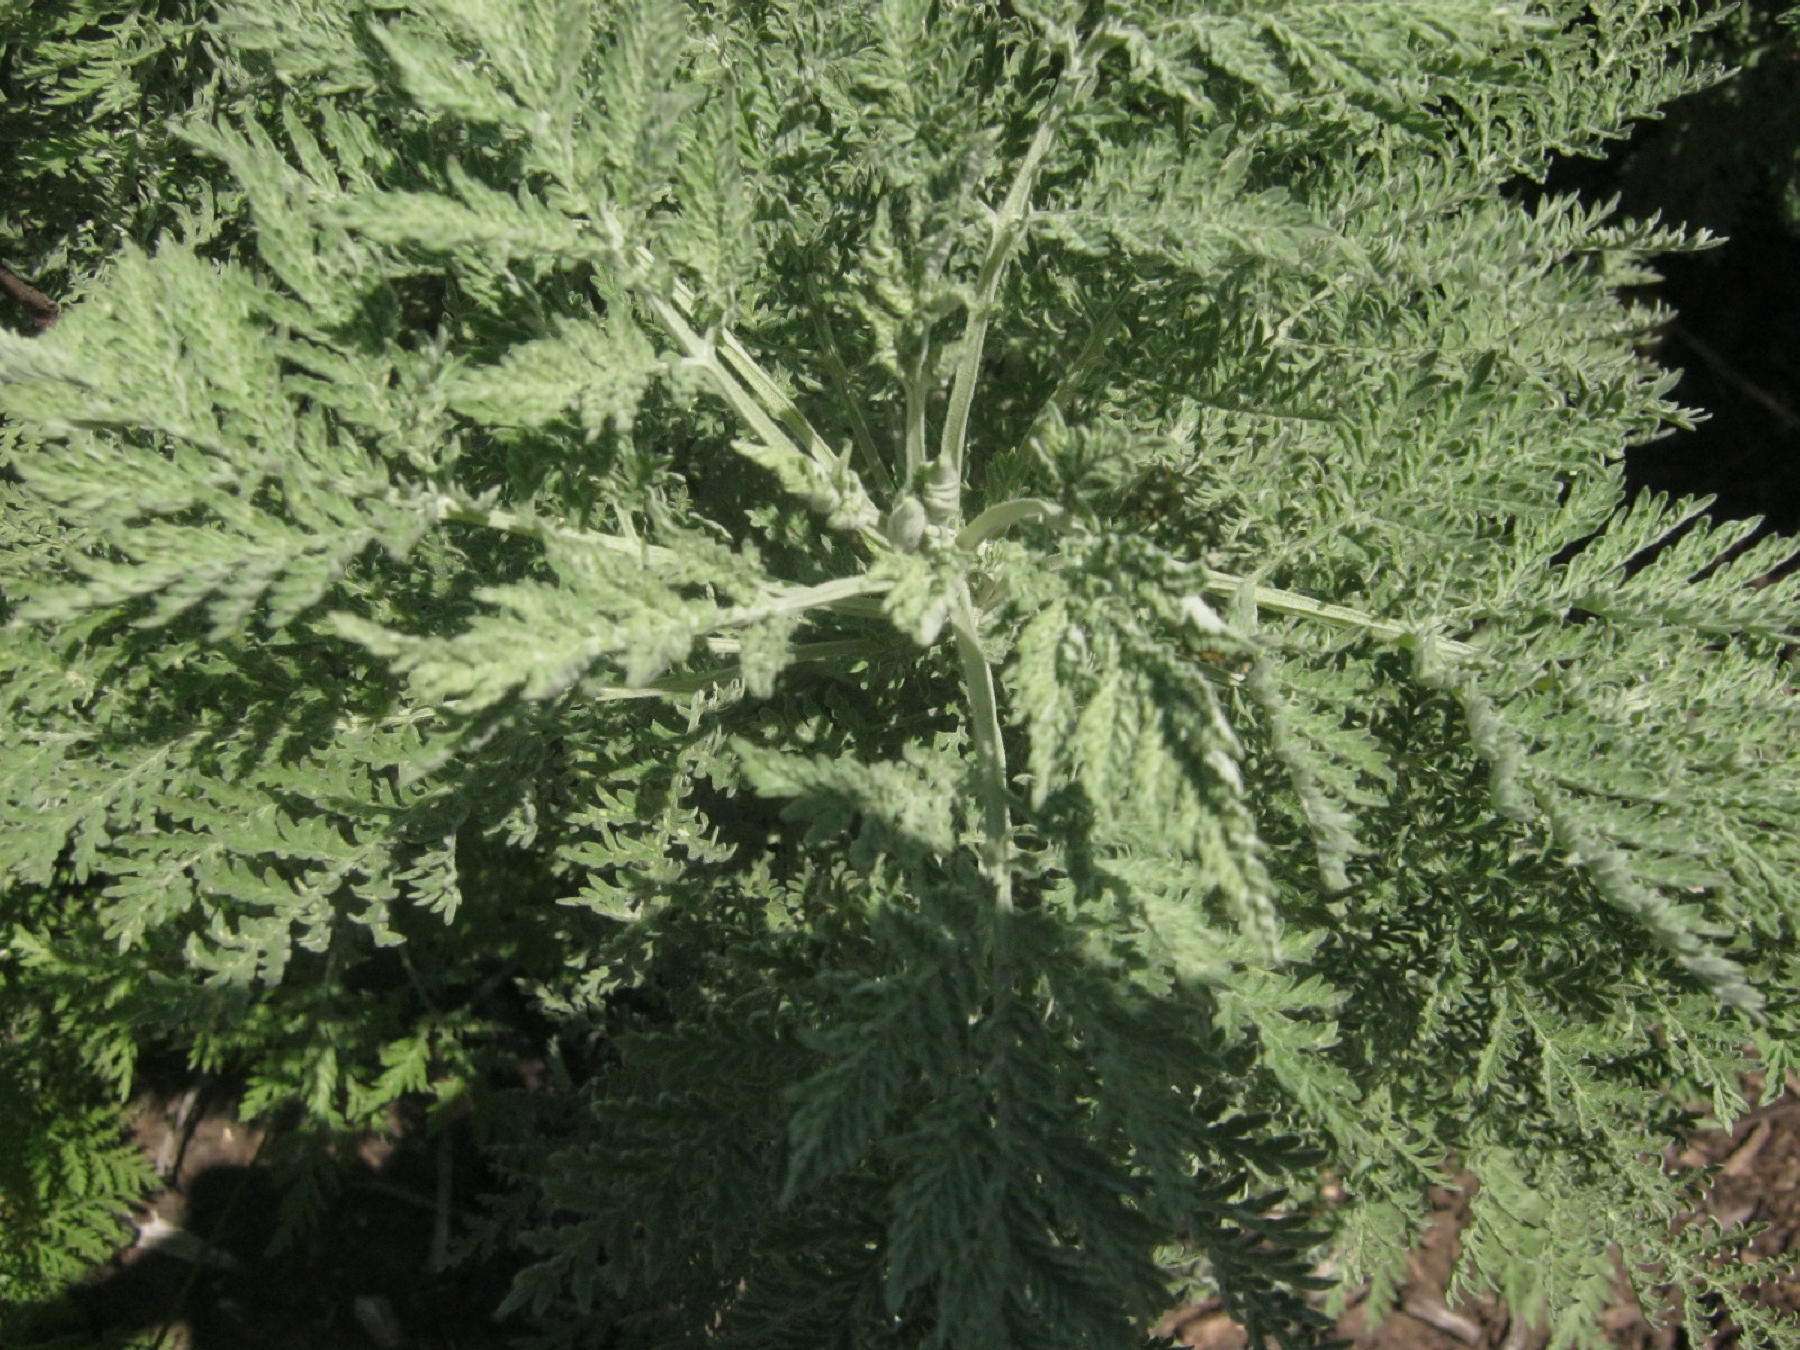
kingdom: Plantae
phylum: Tracheophyta
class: Magnoliopsida
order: Asterales
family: Asteraceae
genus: Artemisia
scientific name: Artemisia afra
